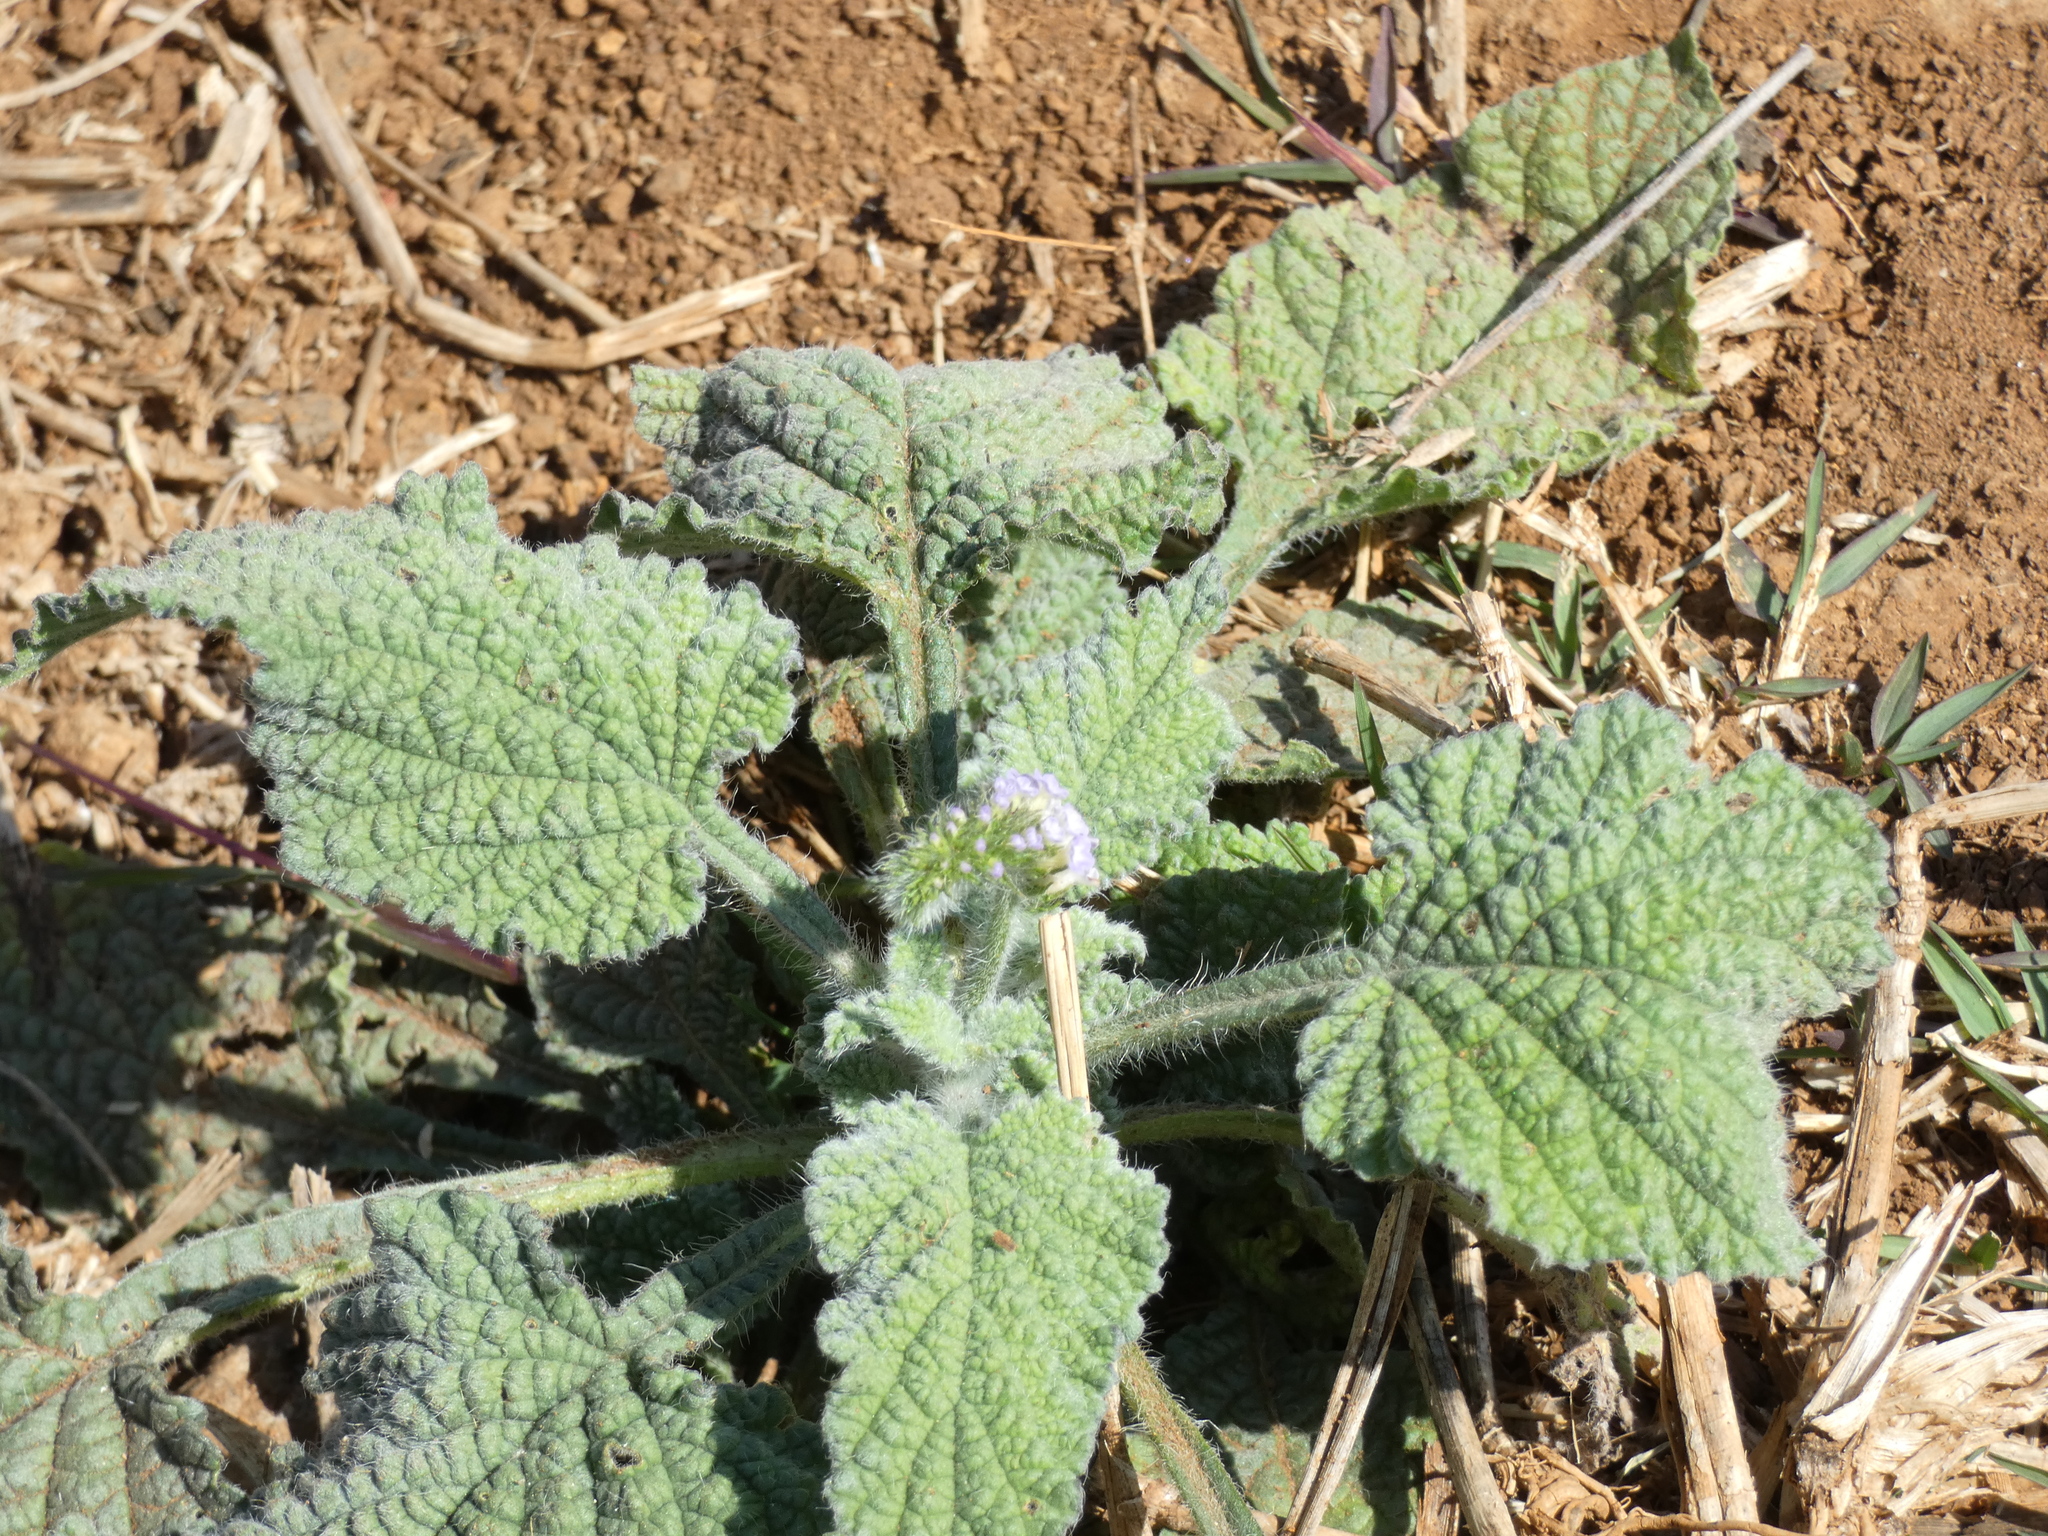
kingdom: Plantae
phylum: Tracheophyta
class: Magnoliopsida
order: Boraginales
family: Heliotropiaceae
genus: Heliotropium
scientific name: Heliotropium indicum
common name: Indian heliotrope
